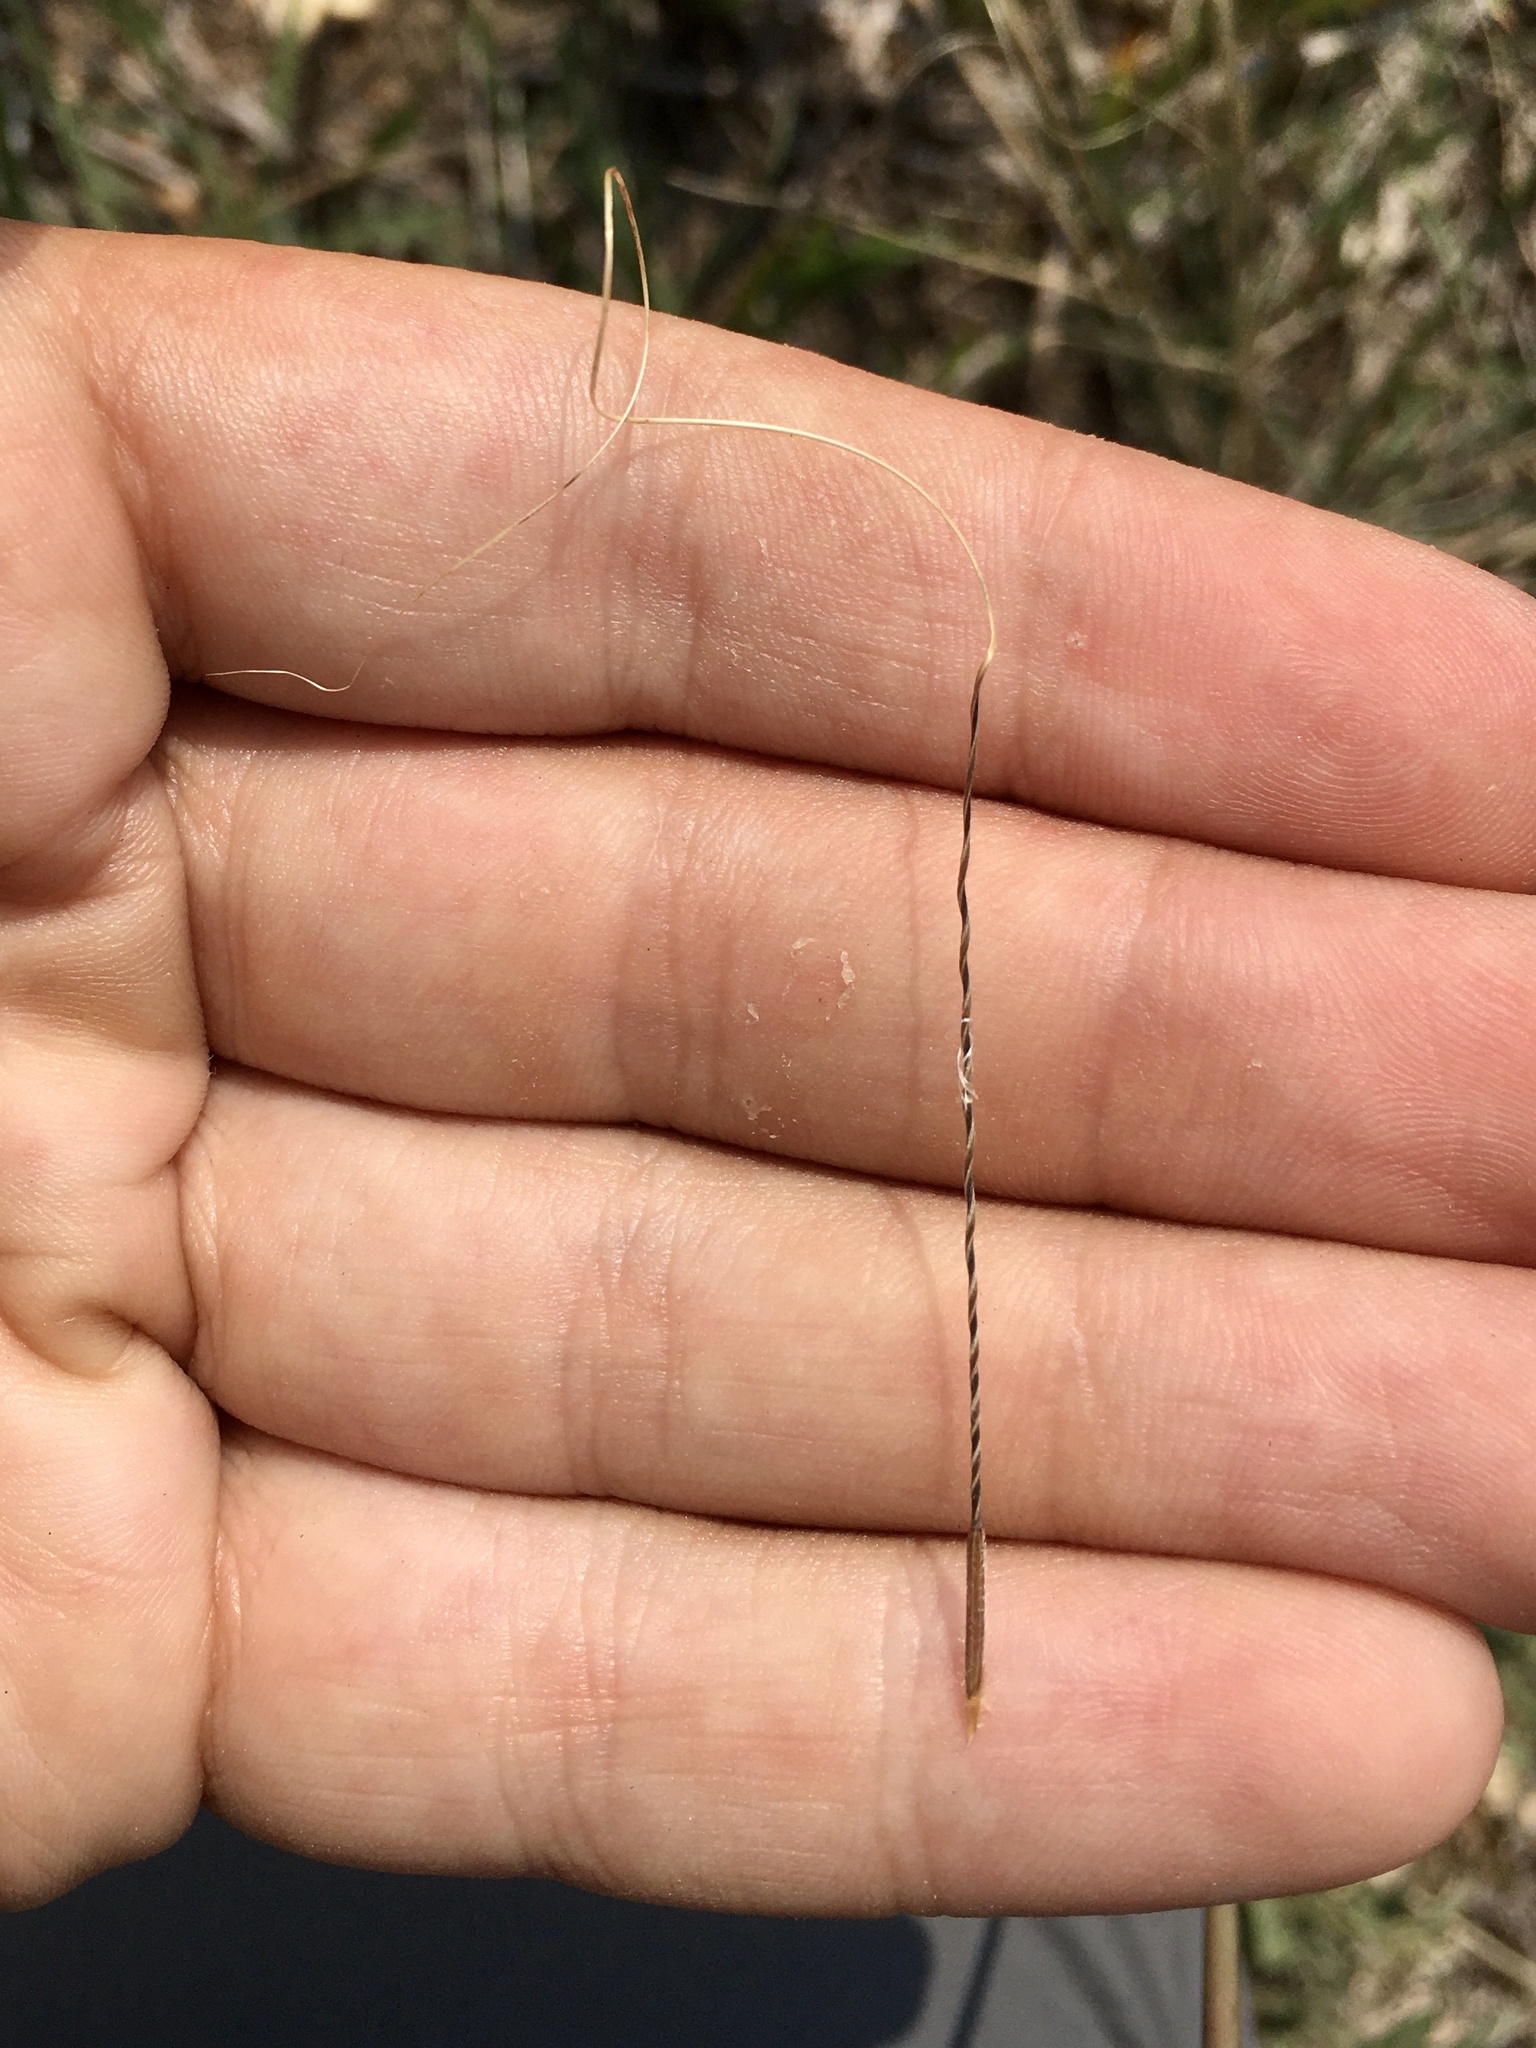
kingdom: Plantae
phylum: Tracheophyta
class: Liliopsida
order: Poales
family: Poaceae
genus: Hesperostipa
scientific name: Hesperostipa comata
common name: Needle-and-thread grass
